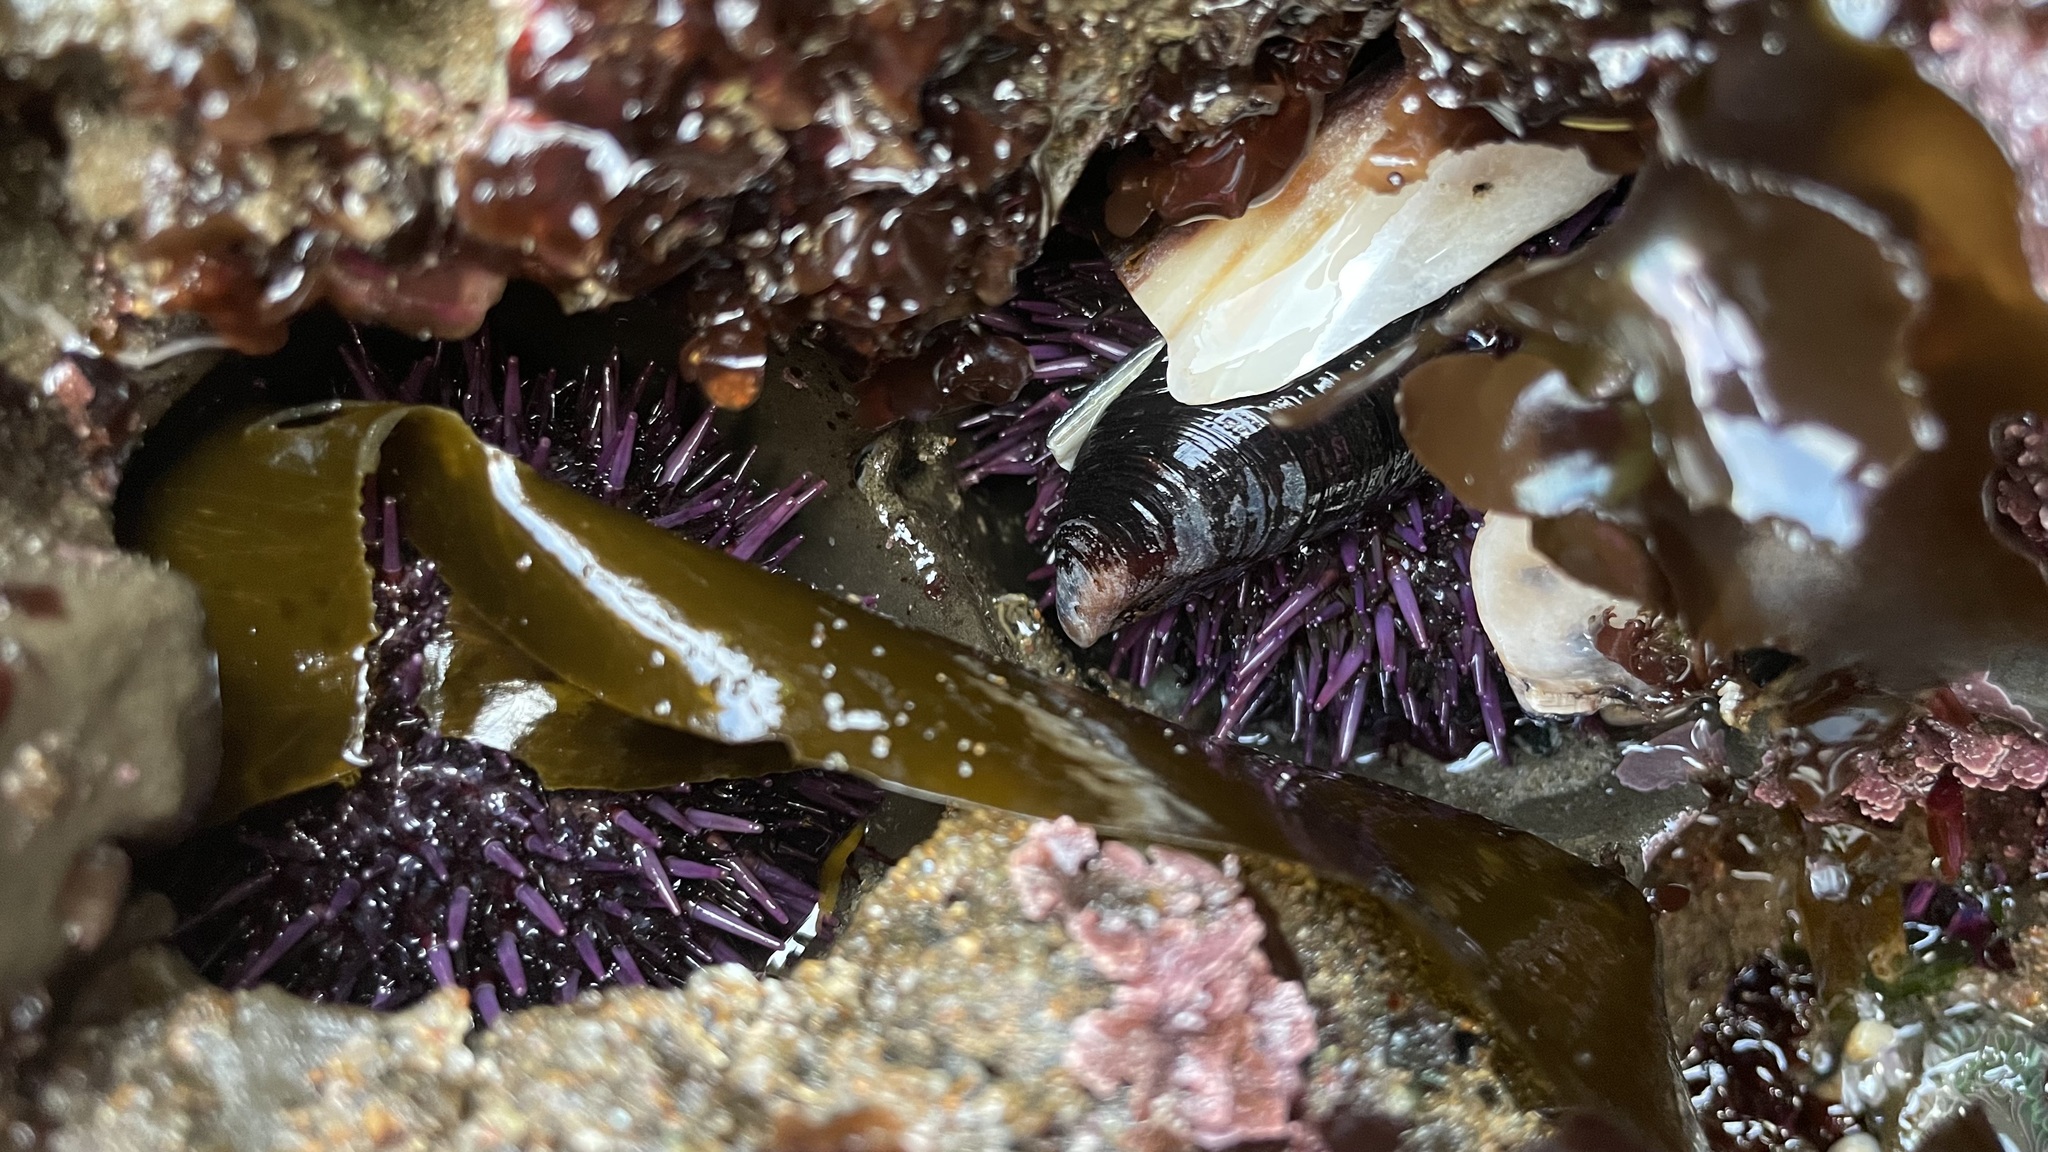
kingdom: Animalia
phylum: Echinodermata
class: Echinoidea
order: Camarodonta
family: Strongylocentrotidae
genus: Strongylocentrotus
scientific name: Strongylocentrotus purpuratus
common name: Purple sea urchin
